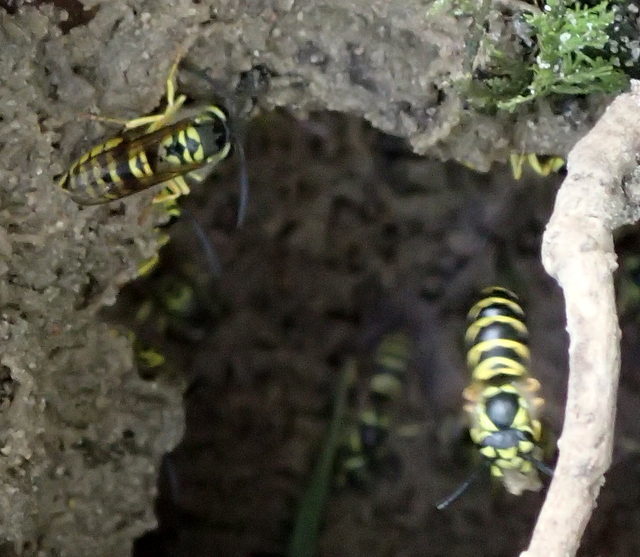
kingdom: Animalia
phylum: Arthropoda
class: Insecta
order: Hymenoptera
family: Vespidae
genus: Vespula
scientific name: Vespula maculifrons
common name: Eastern yellowjacket
